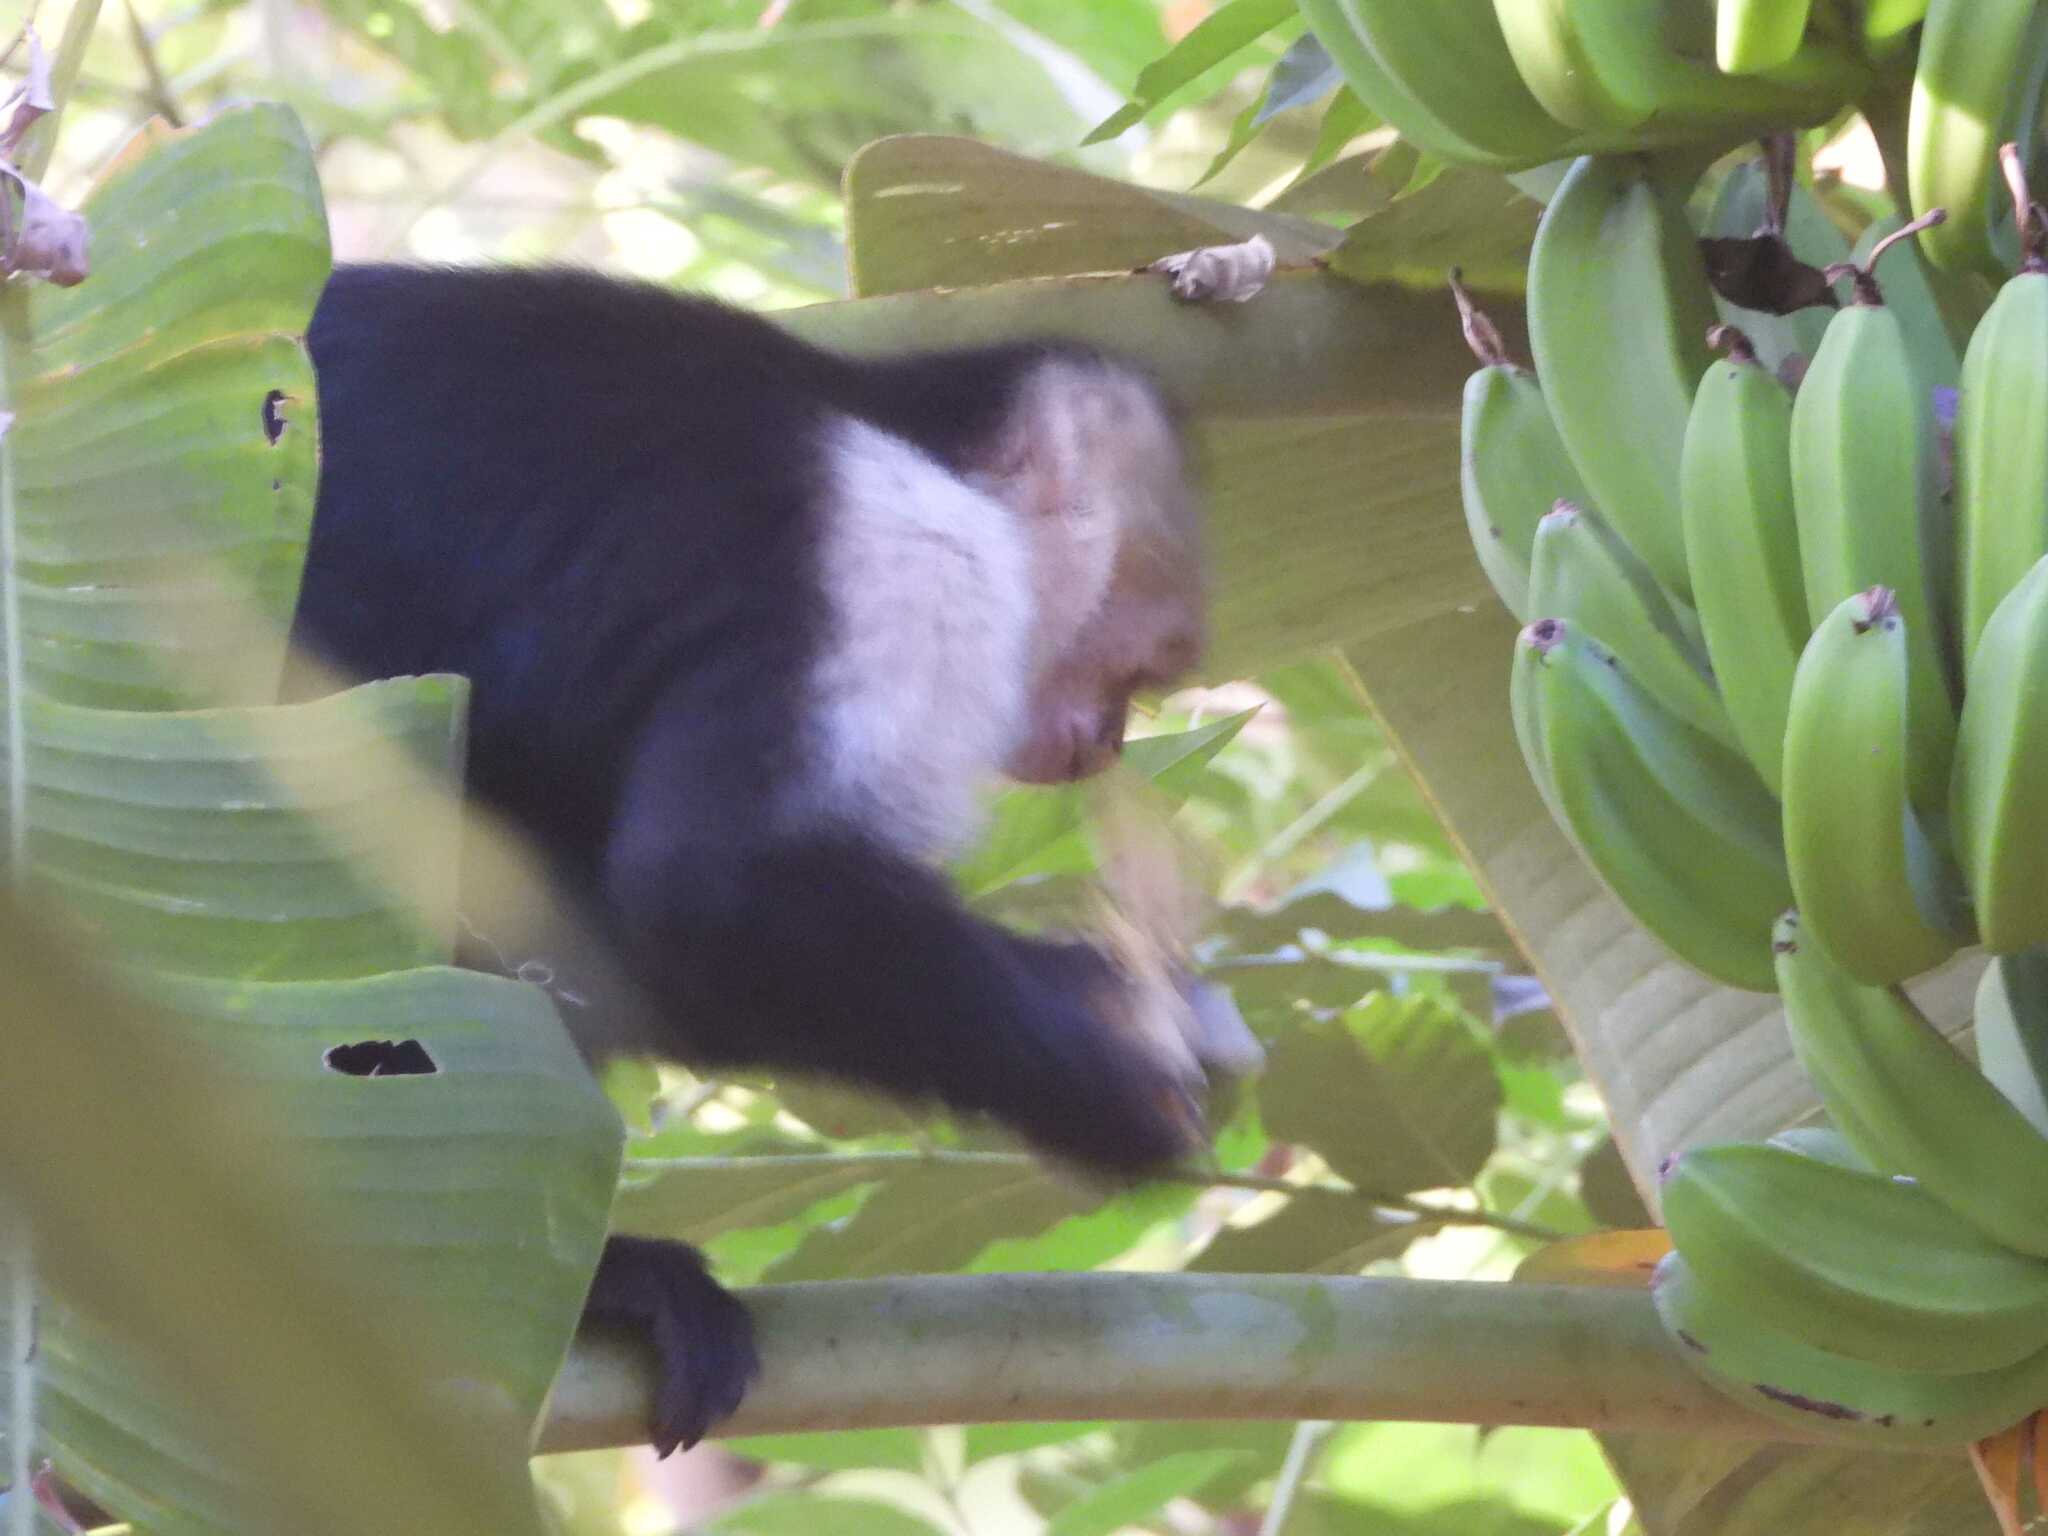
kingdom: Animalia
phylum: Chordata
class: Mammalia
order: Primates
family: Cebidae
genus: Cebus
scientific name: Cebus imitator
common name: Panamanian white-faced capuchin
